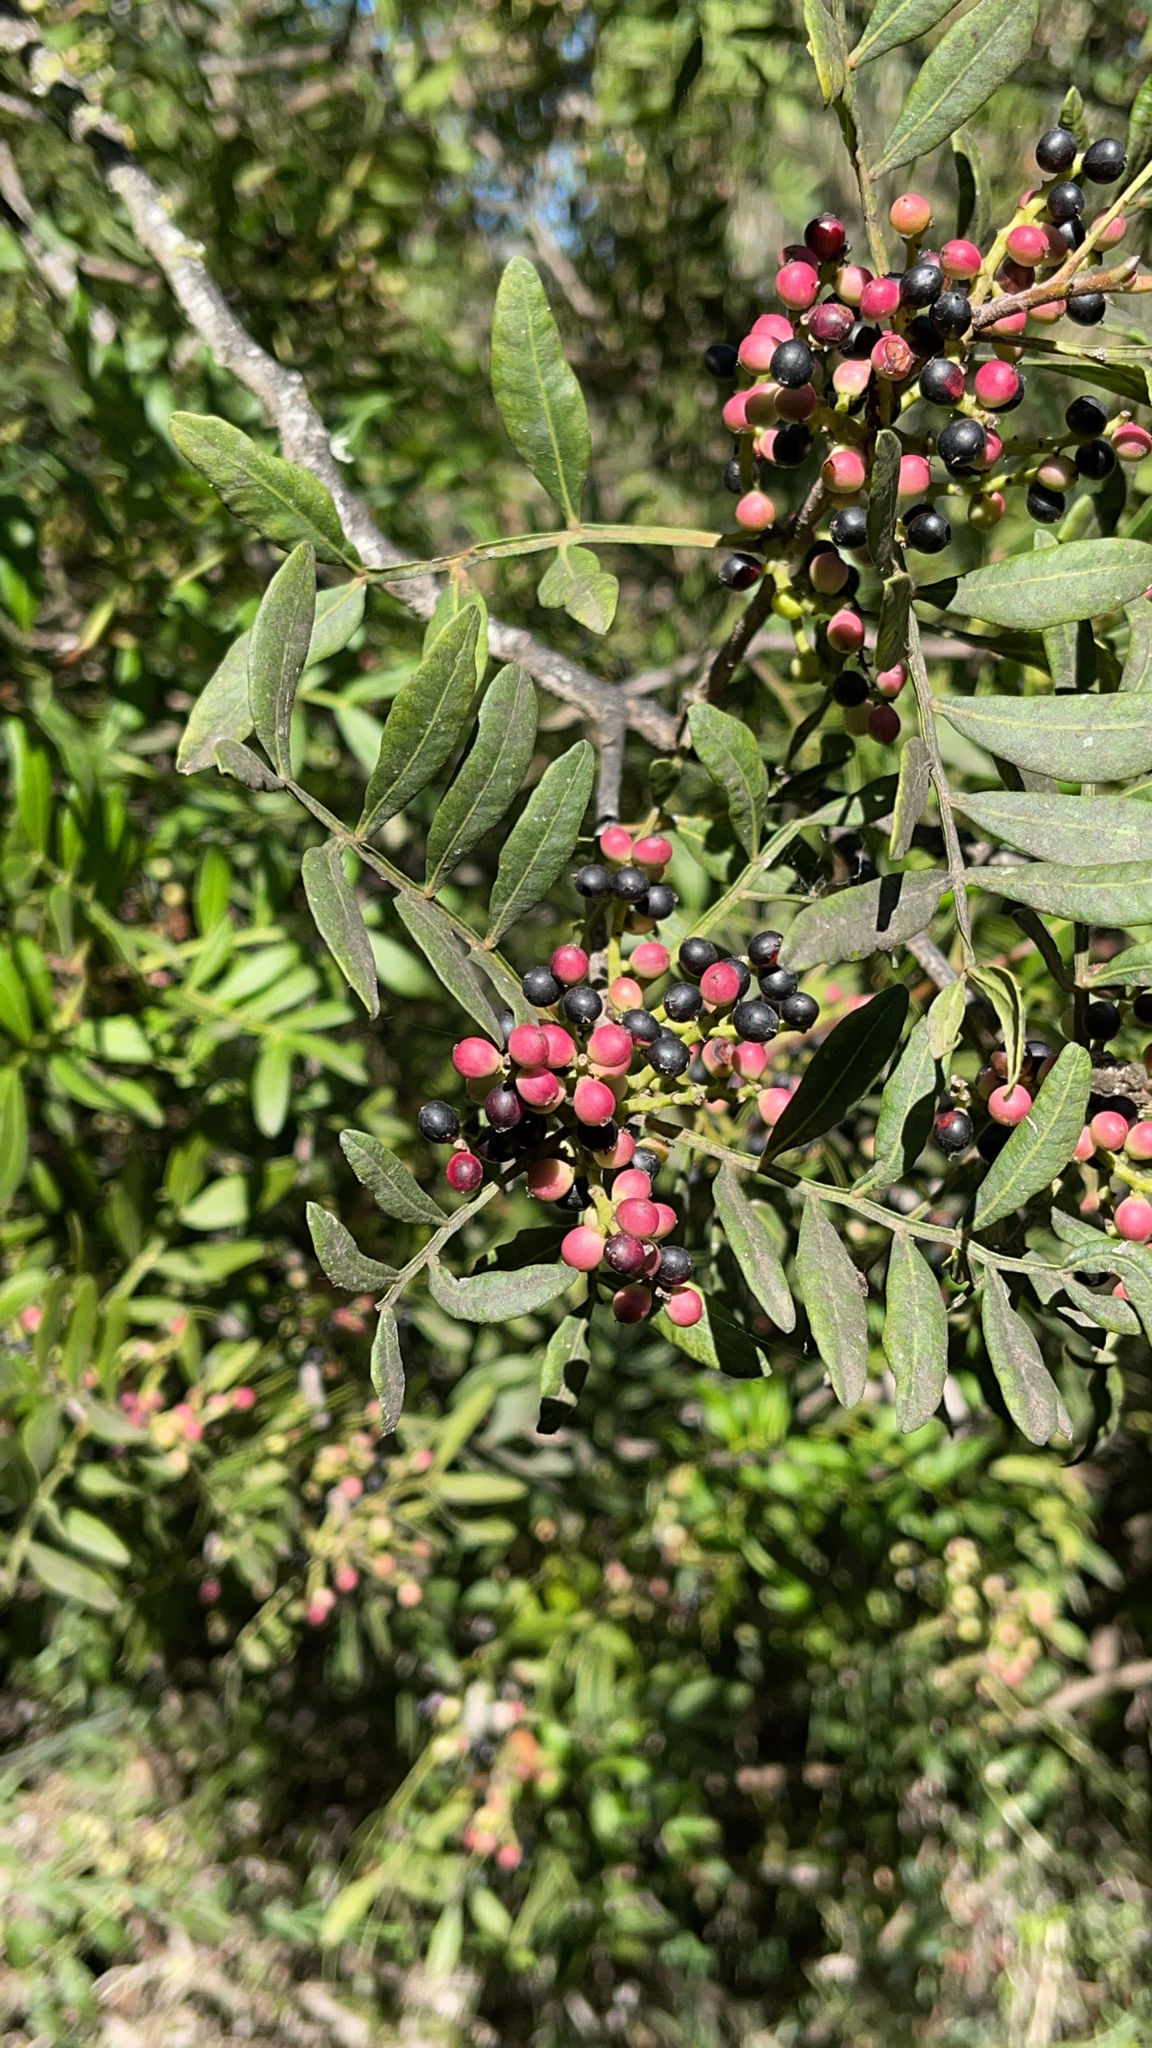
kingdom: Plantae
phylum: Tracheophyta
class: Magnoliopsida
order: Sapindales
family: Anacardiaceae
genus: Pistacia
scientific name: Pistacia lentiscus
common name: Lentisk
